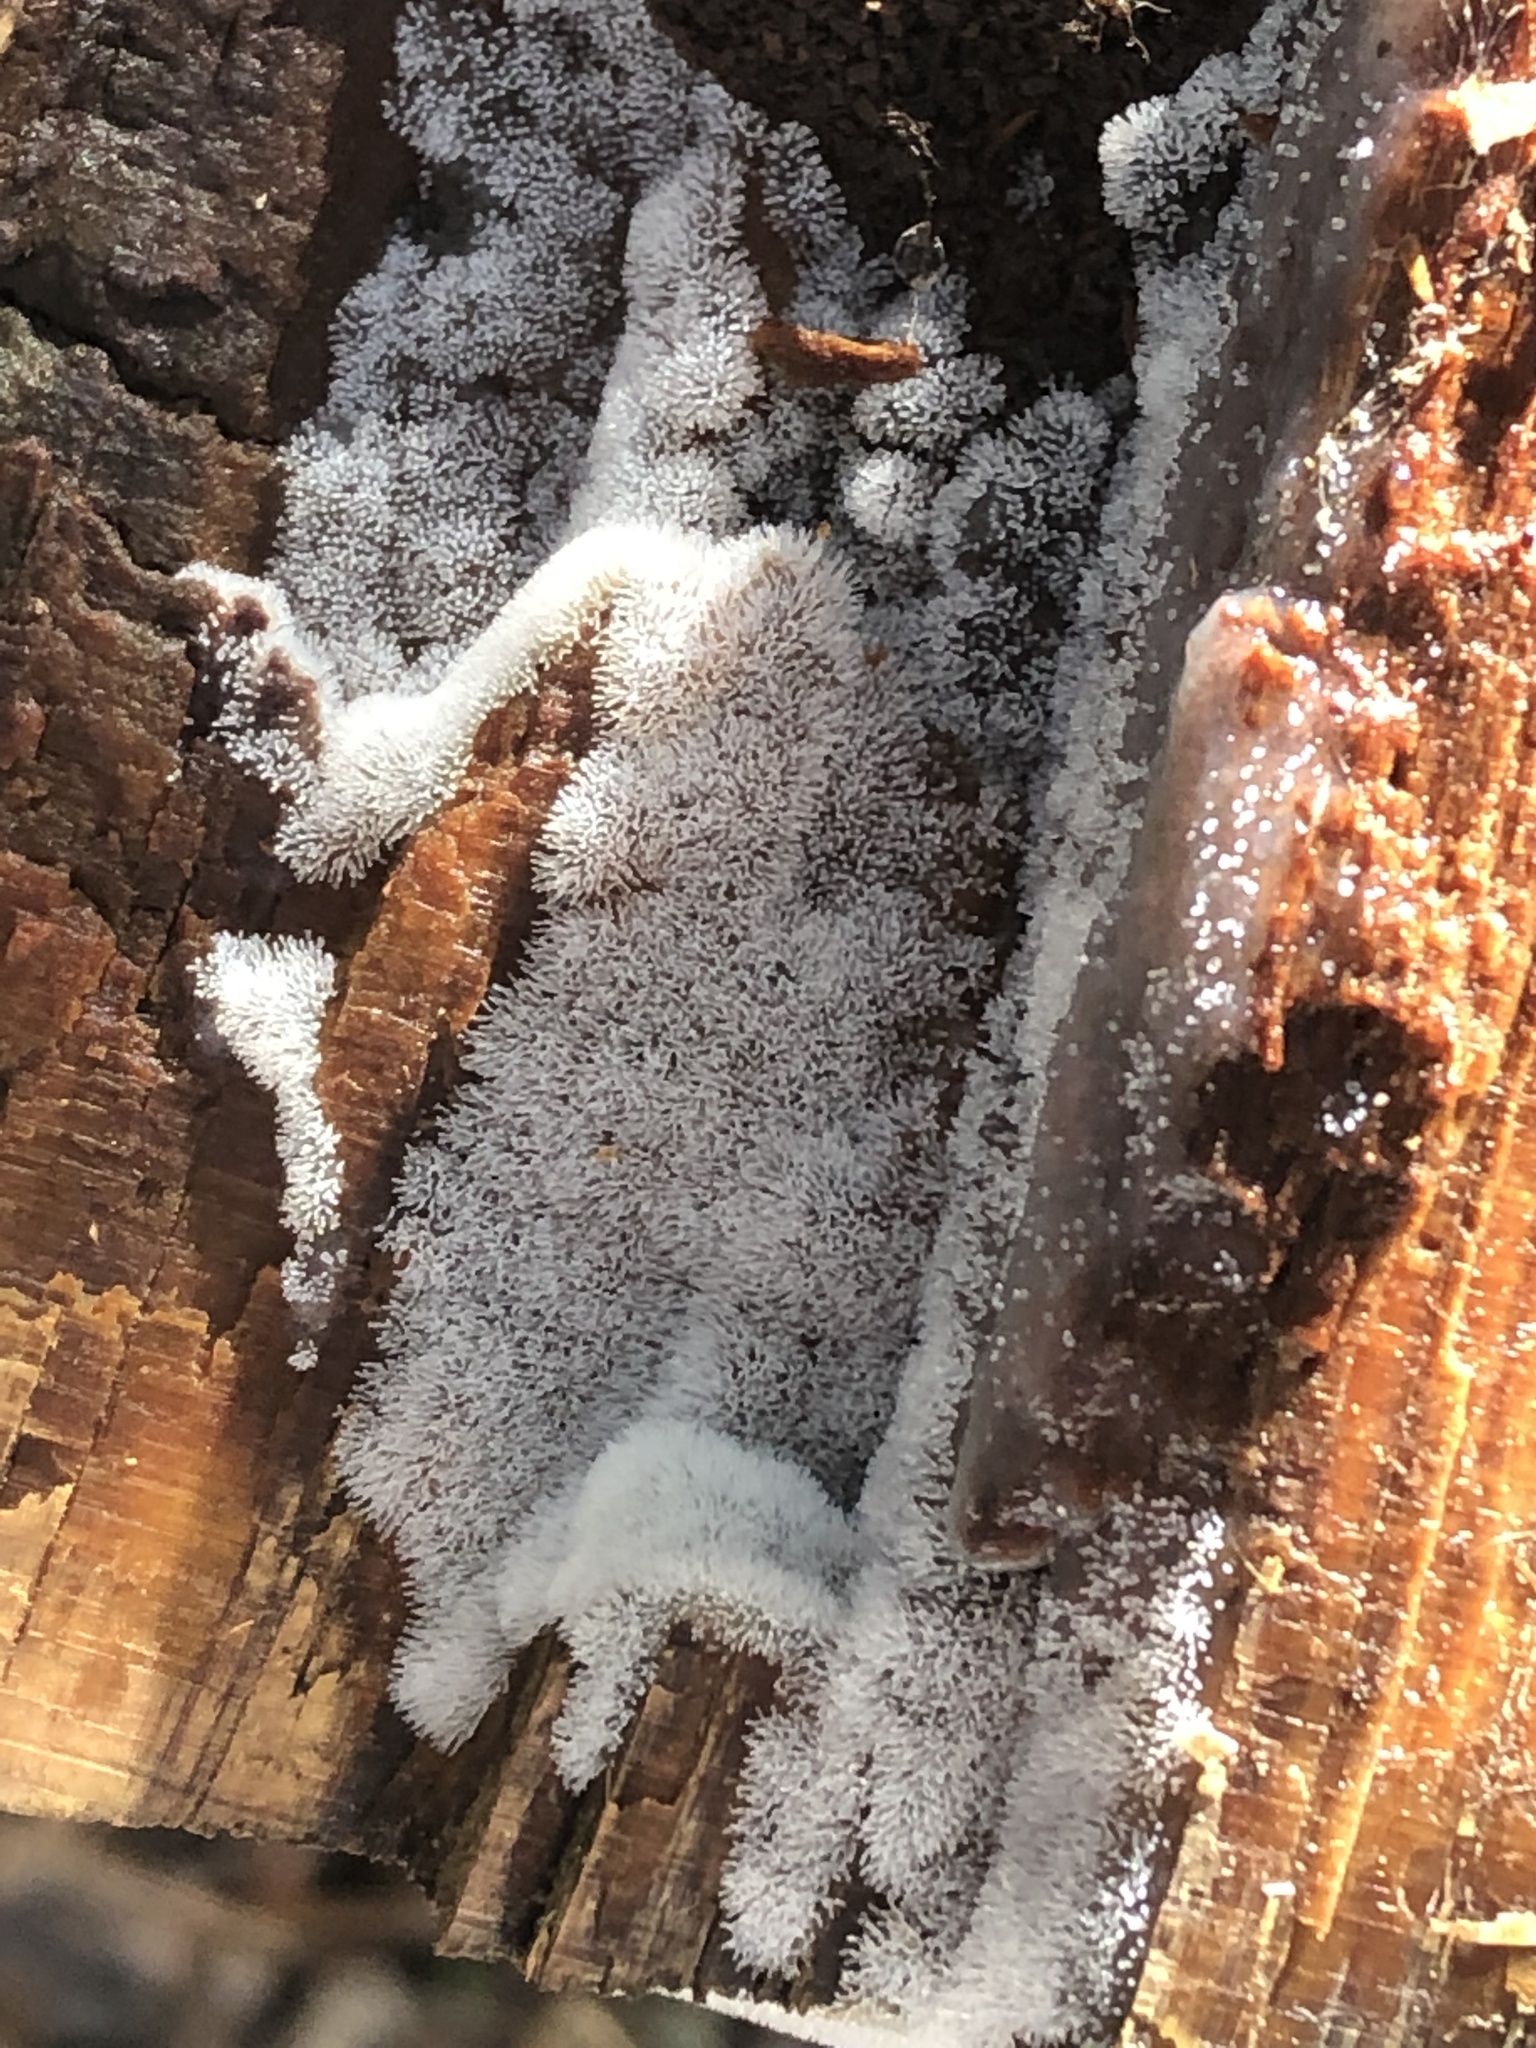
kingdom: Protozoa
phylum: Mycetozoa
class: Protosteliomycetes
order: Ceratiomyxales
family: Ceratiomyxaceae
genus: Ceratiomyxa
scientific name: Ceratiomyxa fruticulosa
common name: Honeycomb coral slime mold
